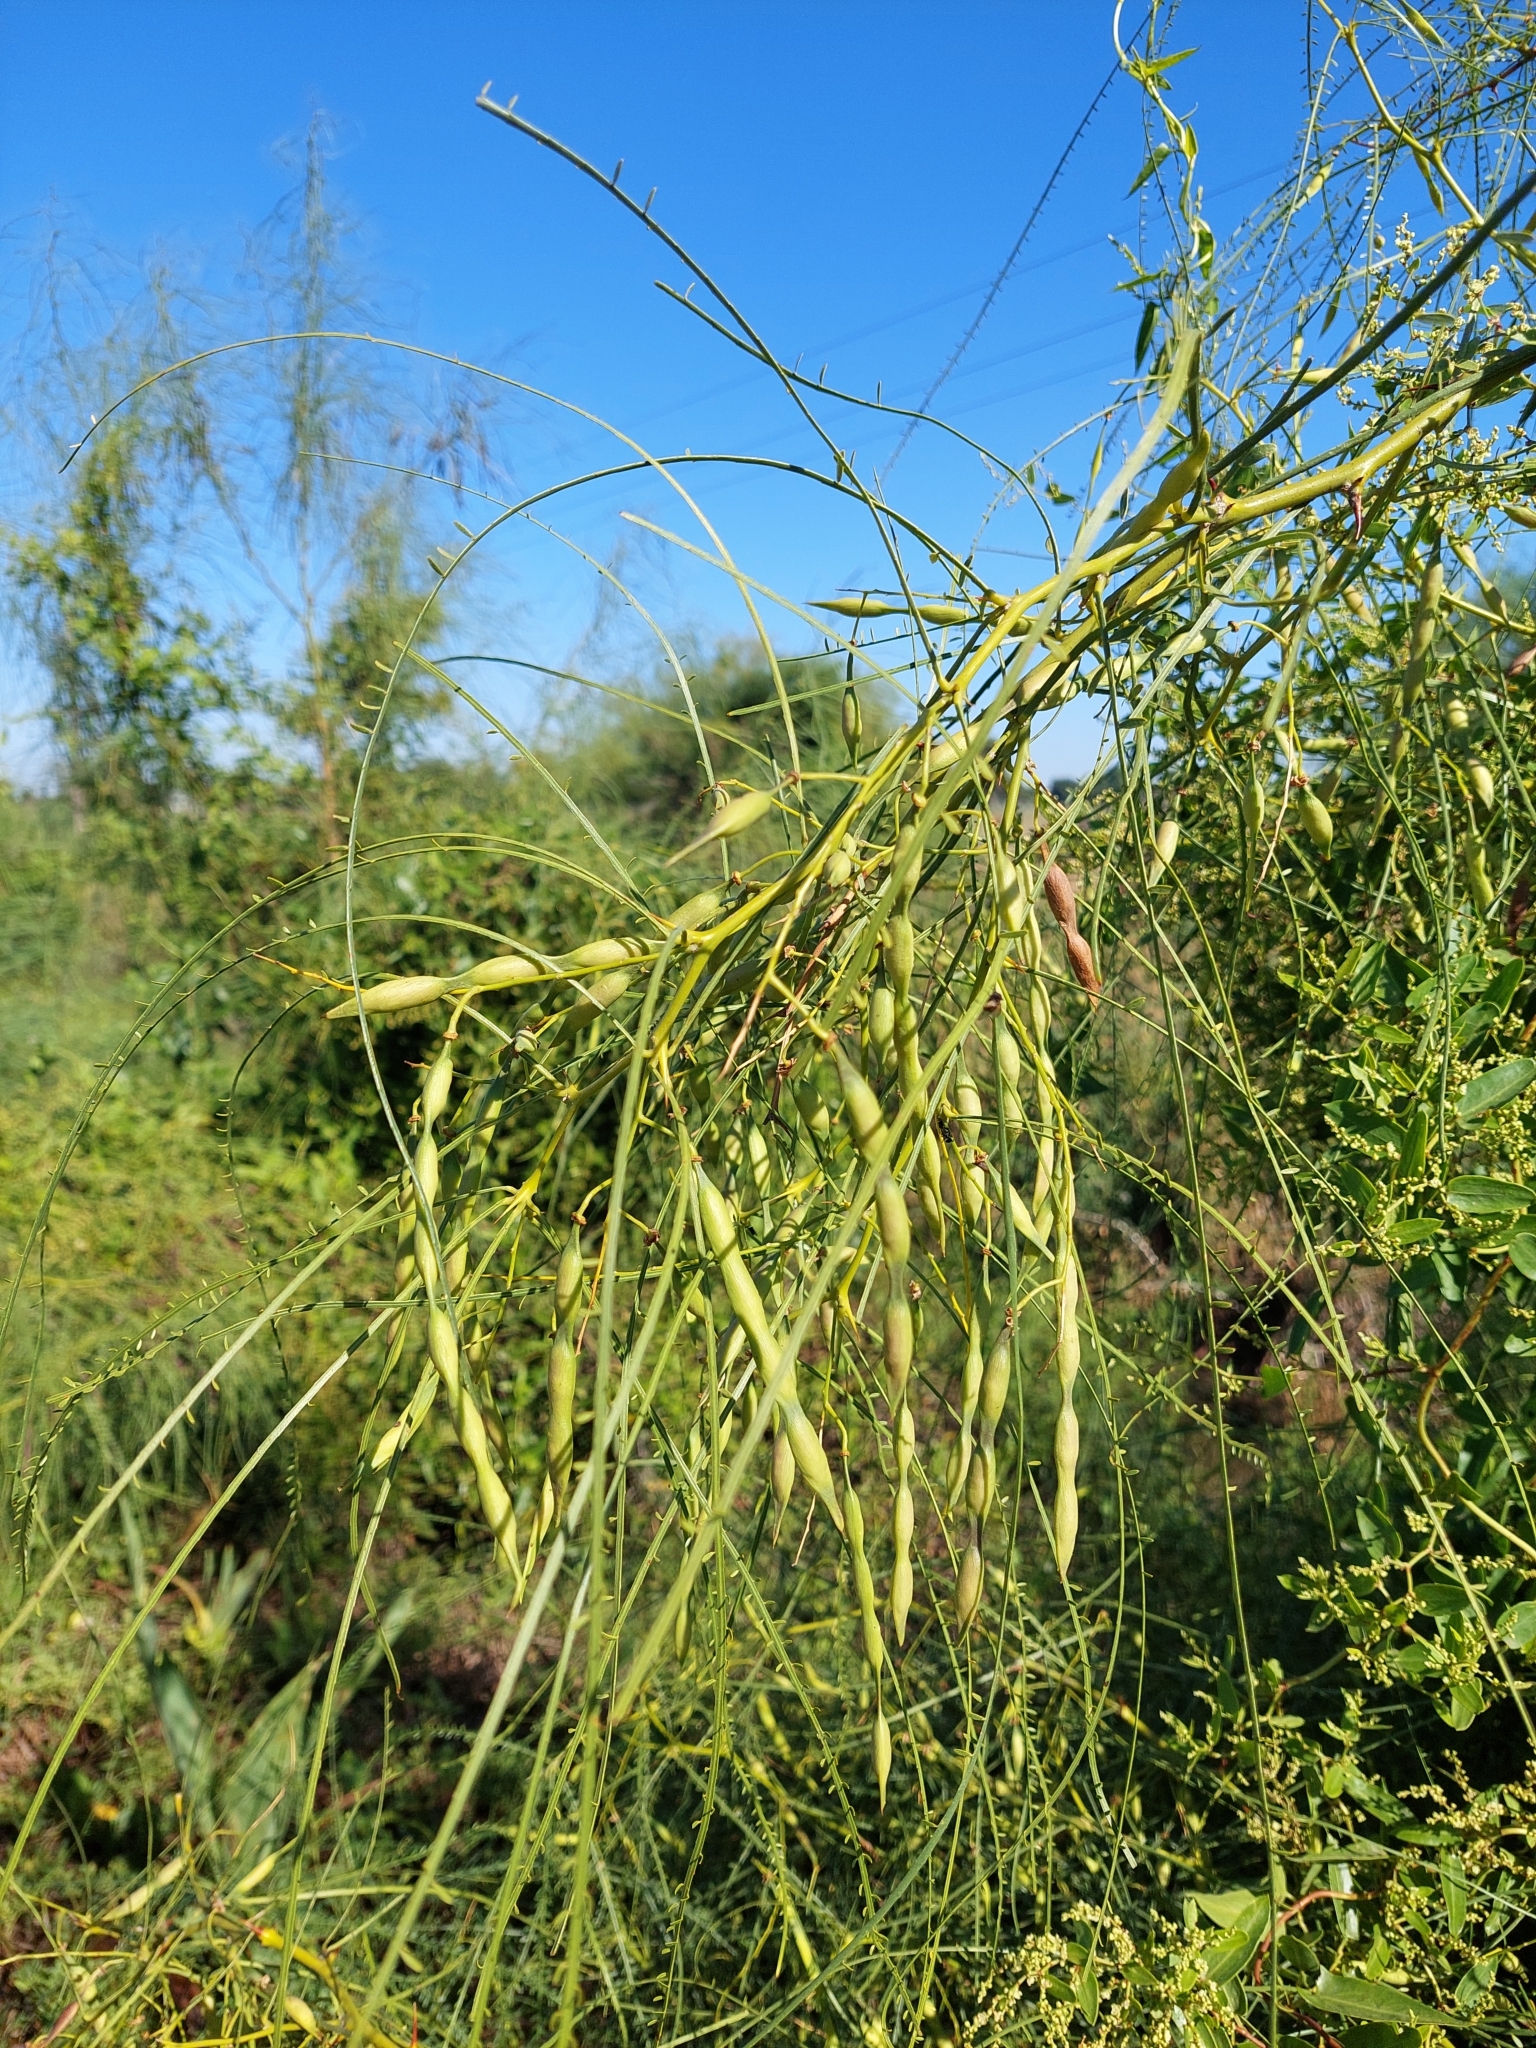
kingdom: Plantae
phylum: Tracheophyta
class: Magnoliopsida
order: Fabales
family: Fabaceae
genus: Parkinsonia
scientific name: Parkinsonia aculeata
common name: Jerusalem thorn
